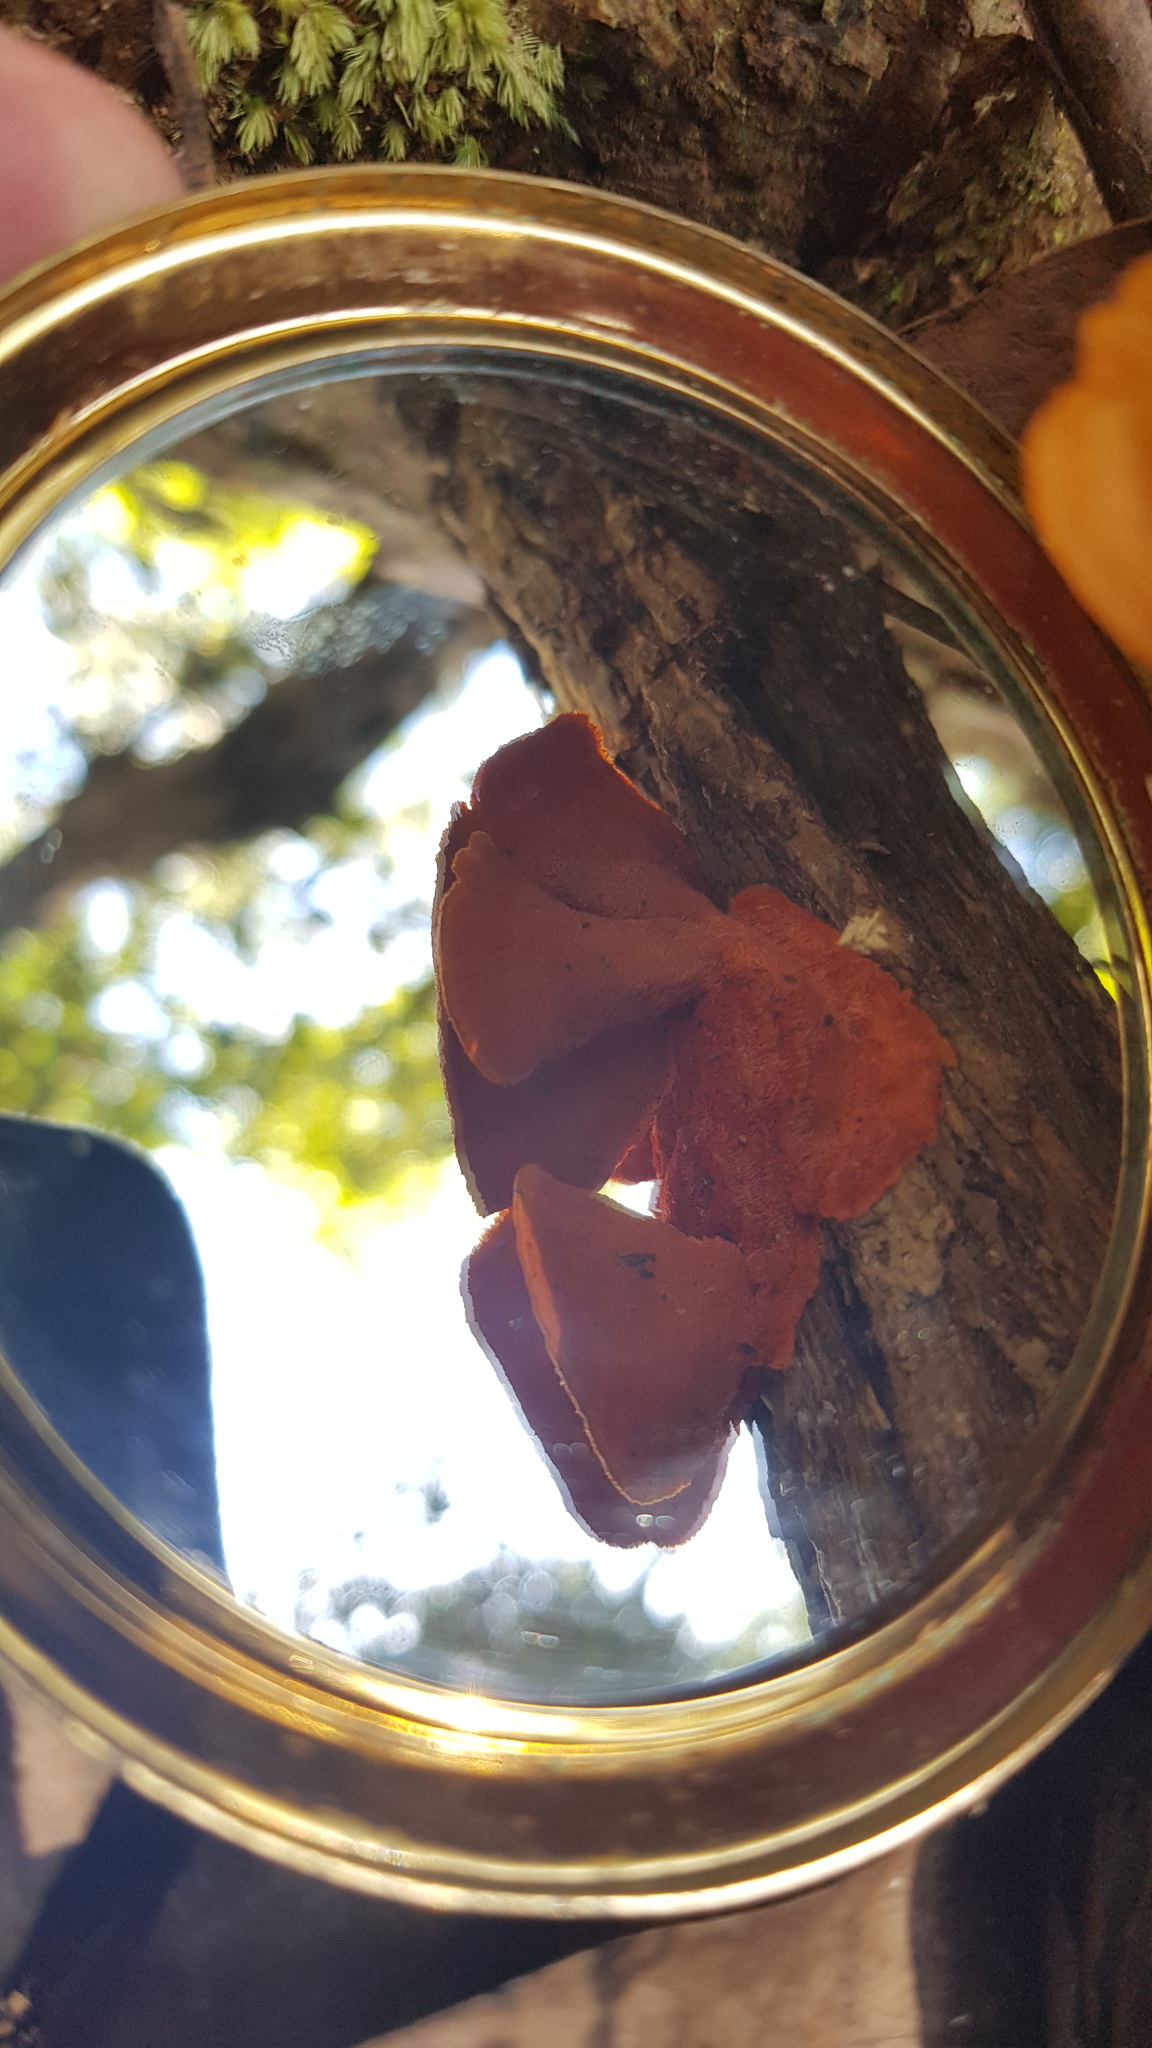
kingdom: Fungi
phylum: Basidiomycota
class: Agaricomycetes
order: Polyporales
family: Polyporaceae
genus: Trametes
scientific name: Trametes coccinea
